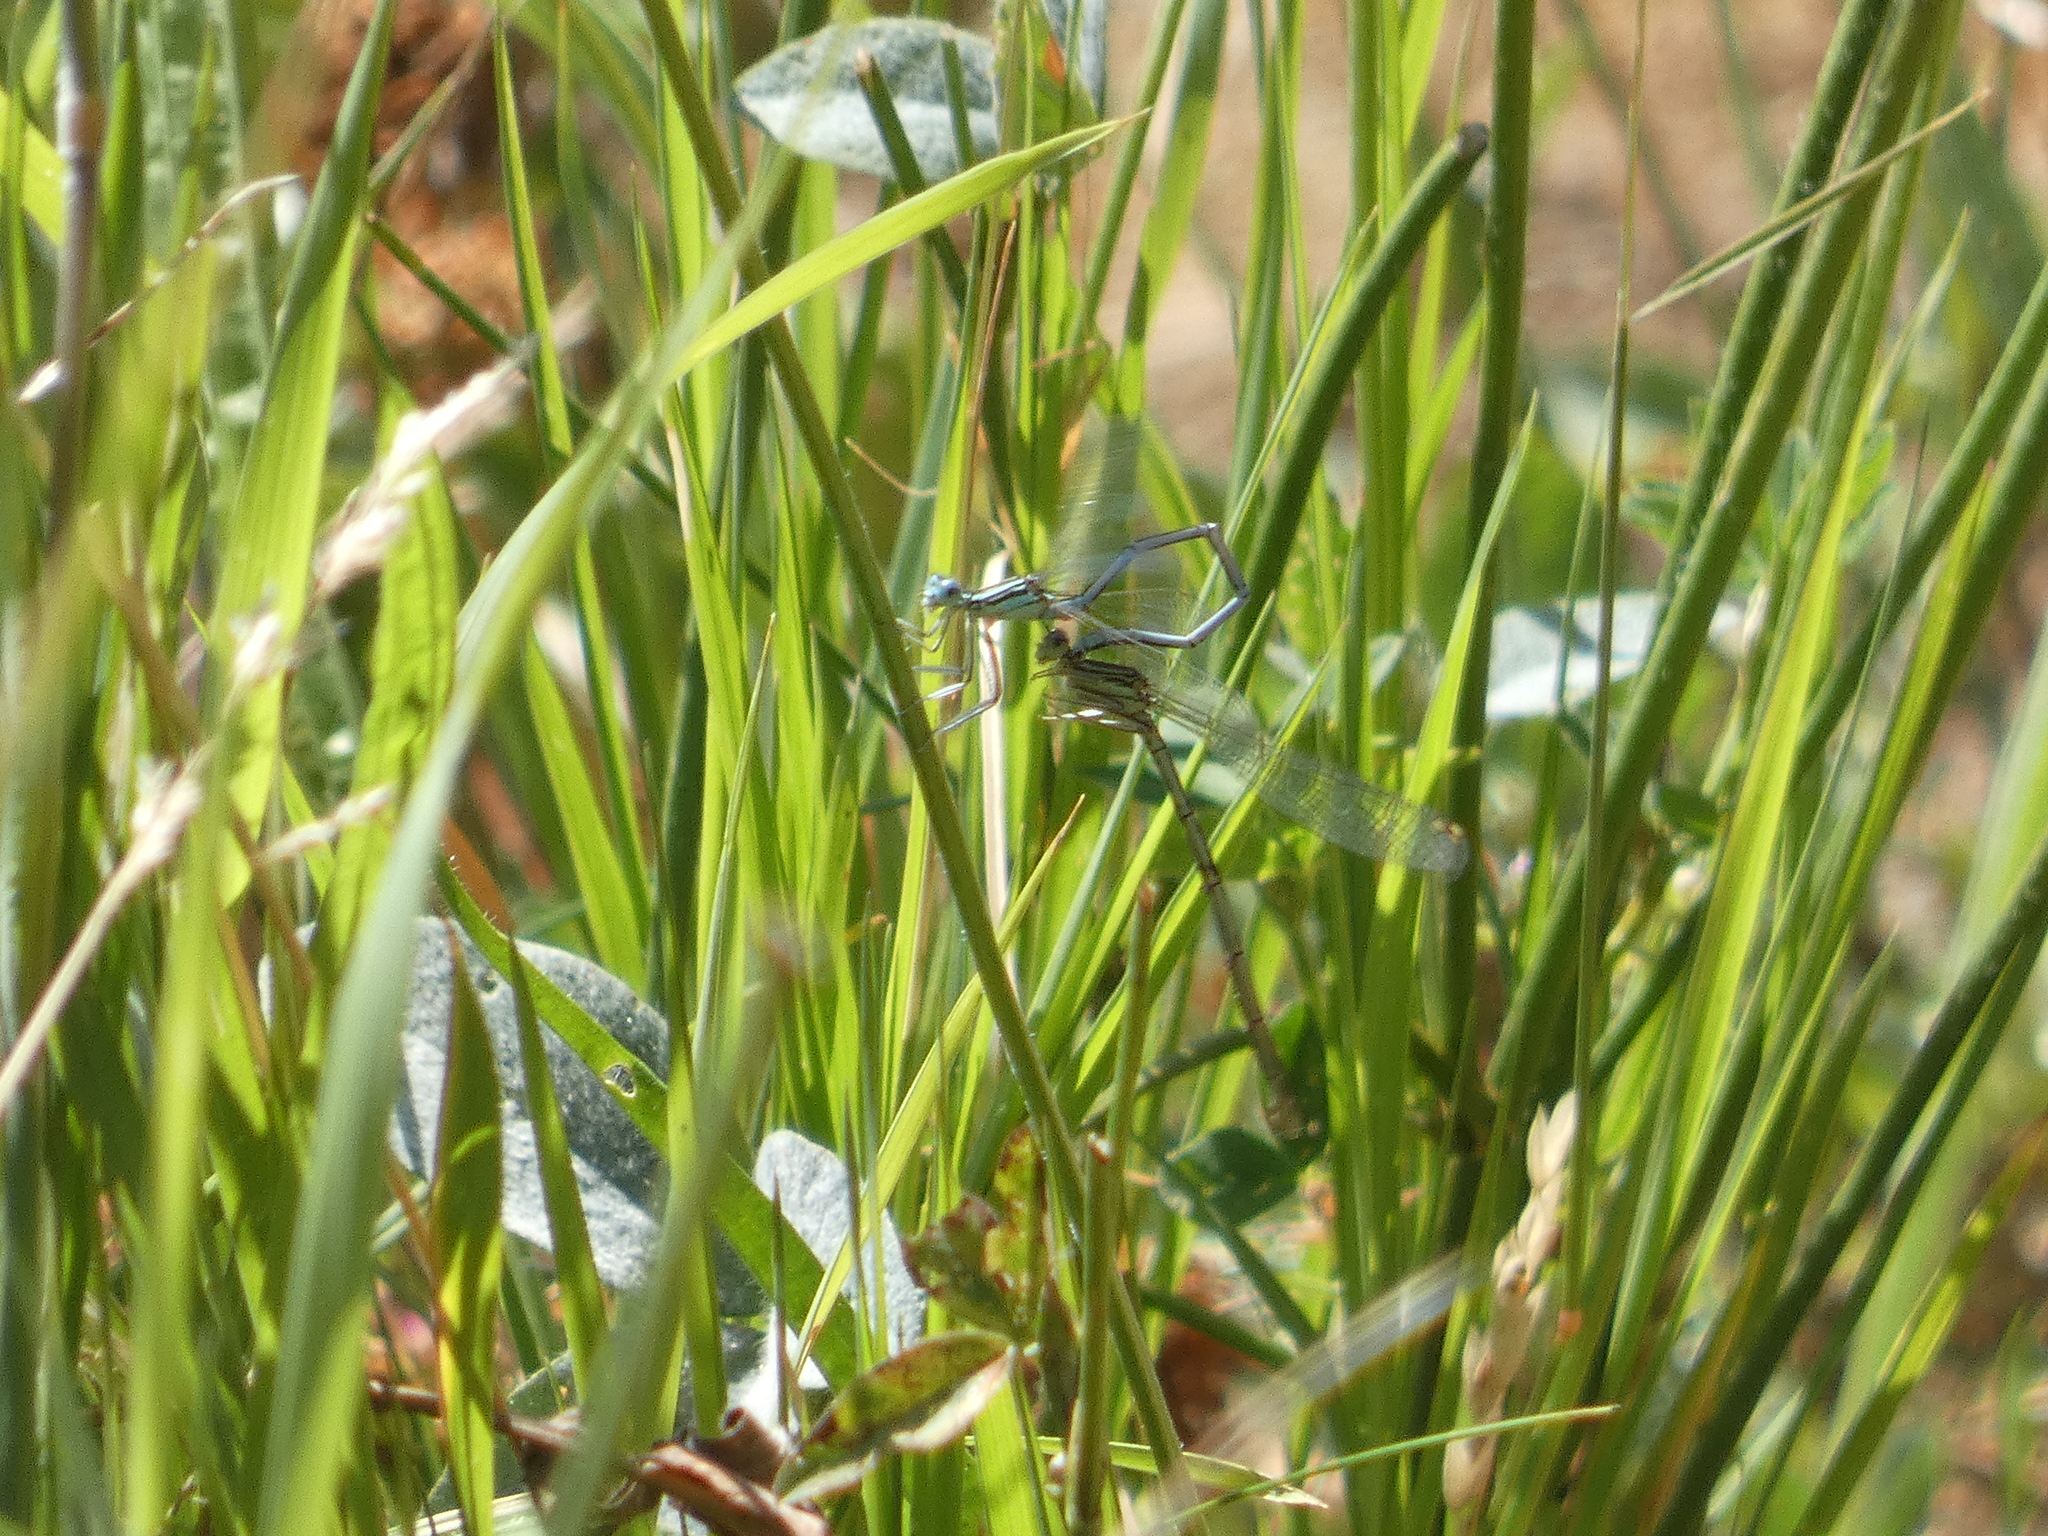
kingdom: Animalia
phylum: Arthropoda
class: Insecta
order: Odonata
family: Platycnemididae
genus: Platycnemis
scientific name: Platycnemis pennipes
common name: White-legged damselfly
